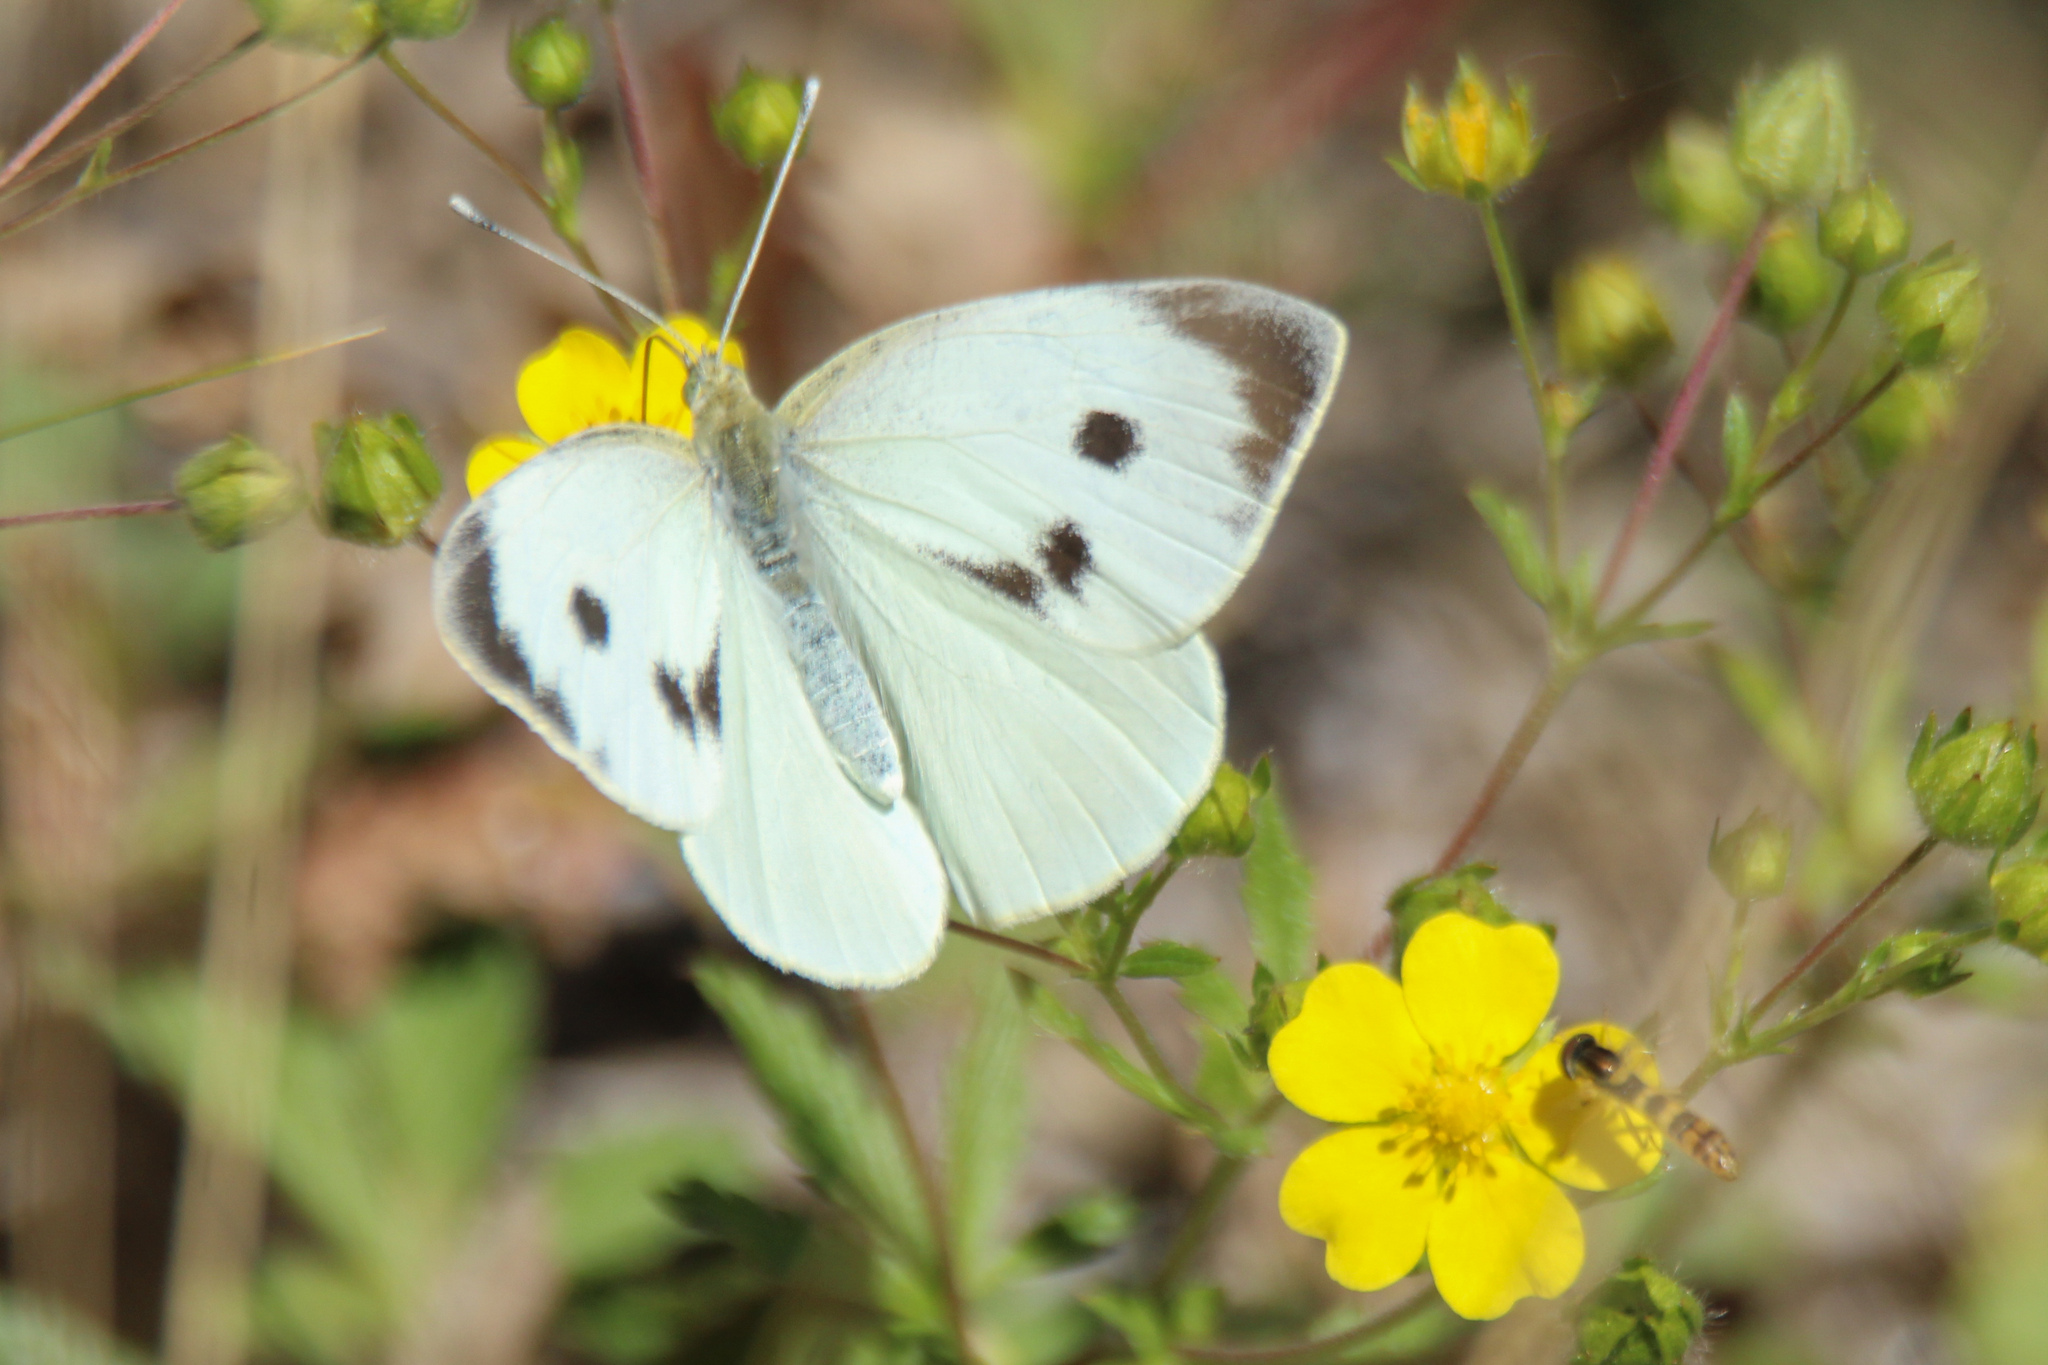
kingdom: Animalia
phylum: Arthropoda
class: Insecta
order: Lepidoptera
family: Pieridae
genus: Pieris
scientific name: Pieris brassicae
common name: Large white
